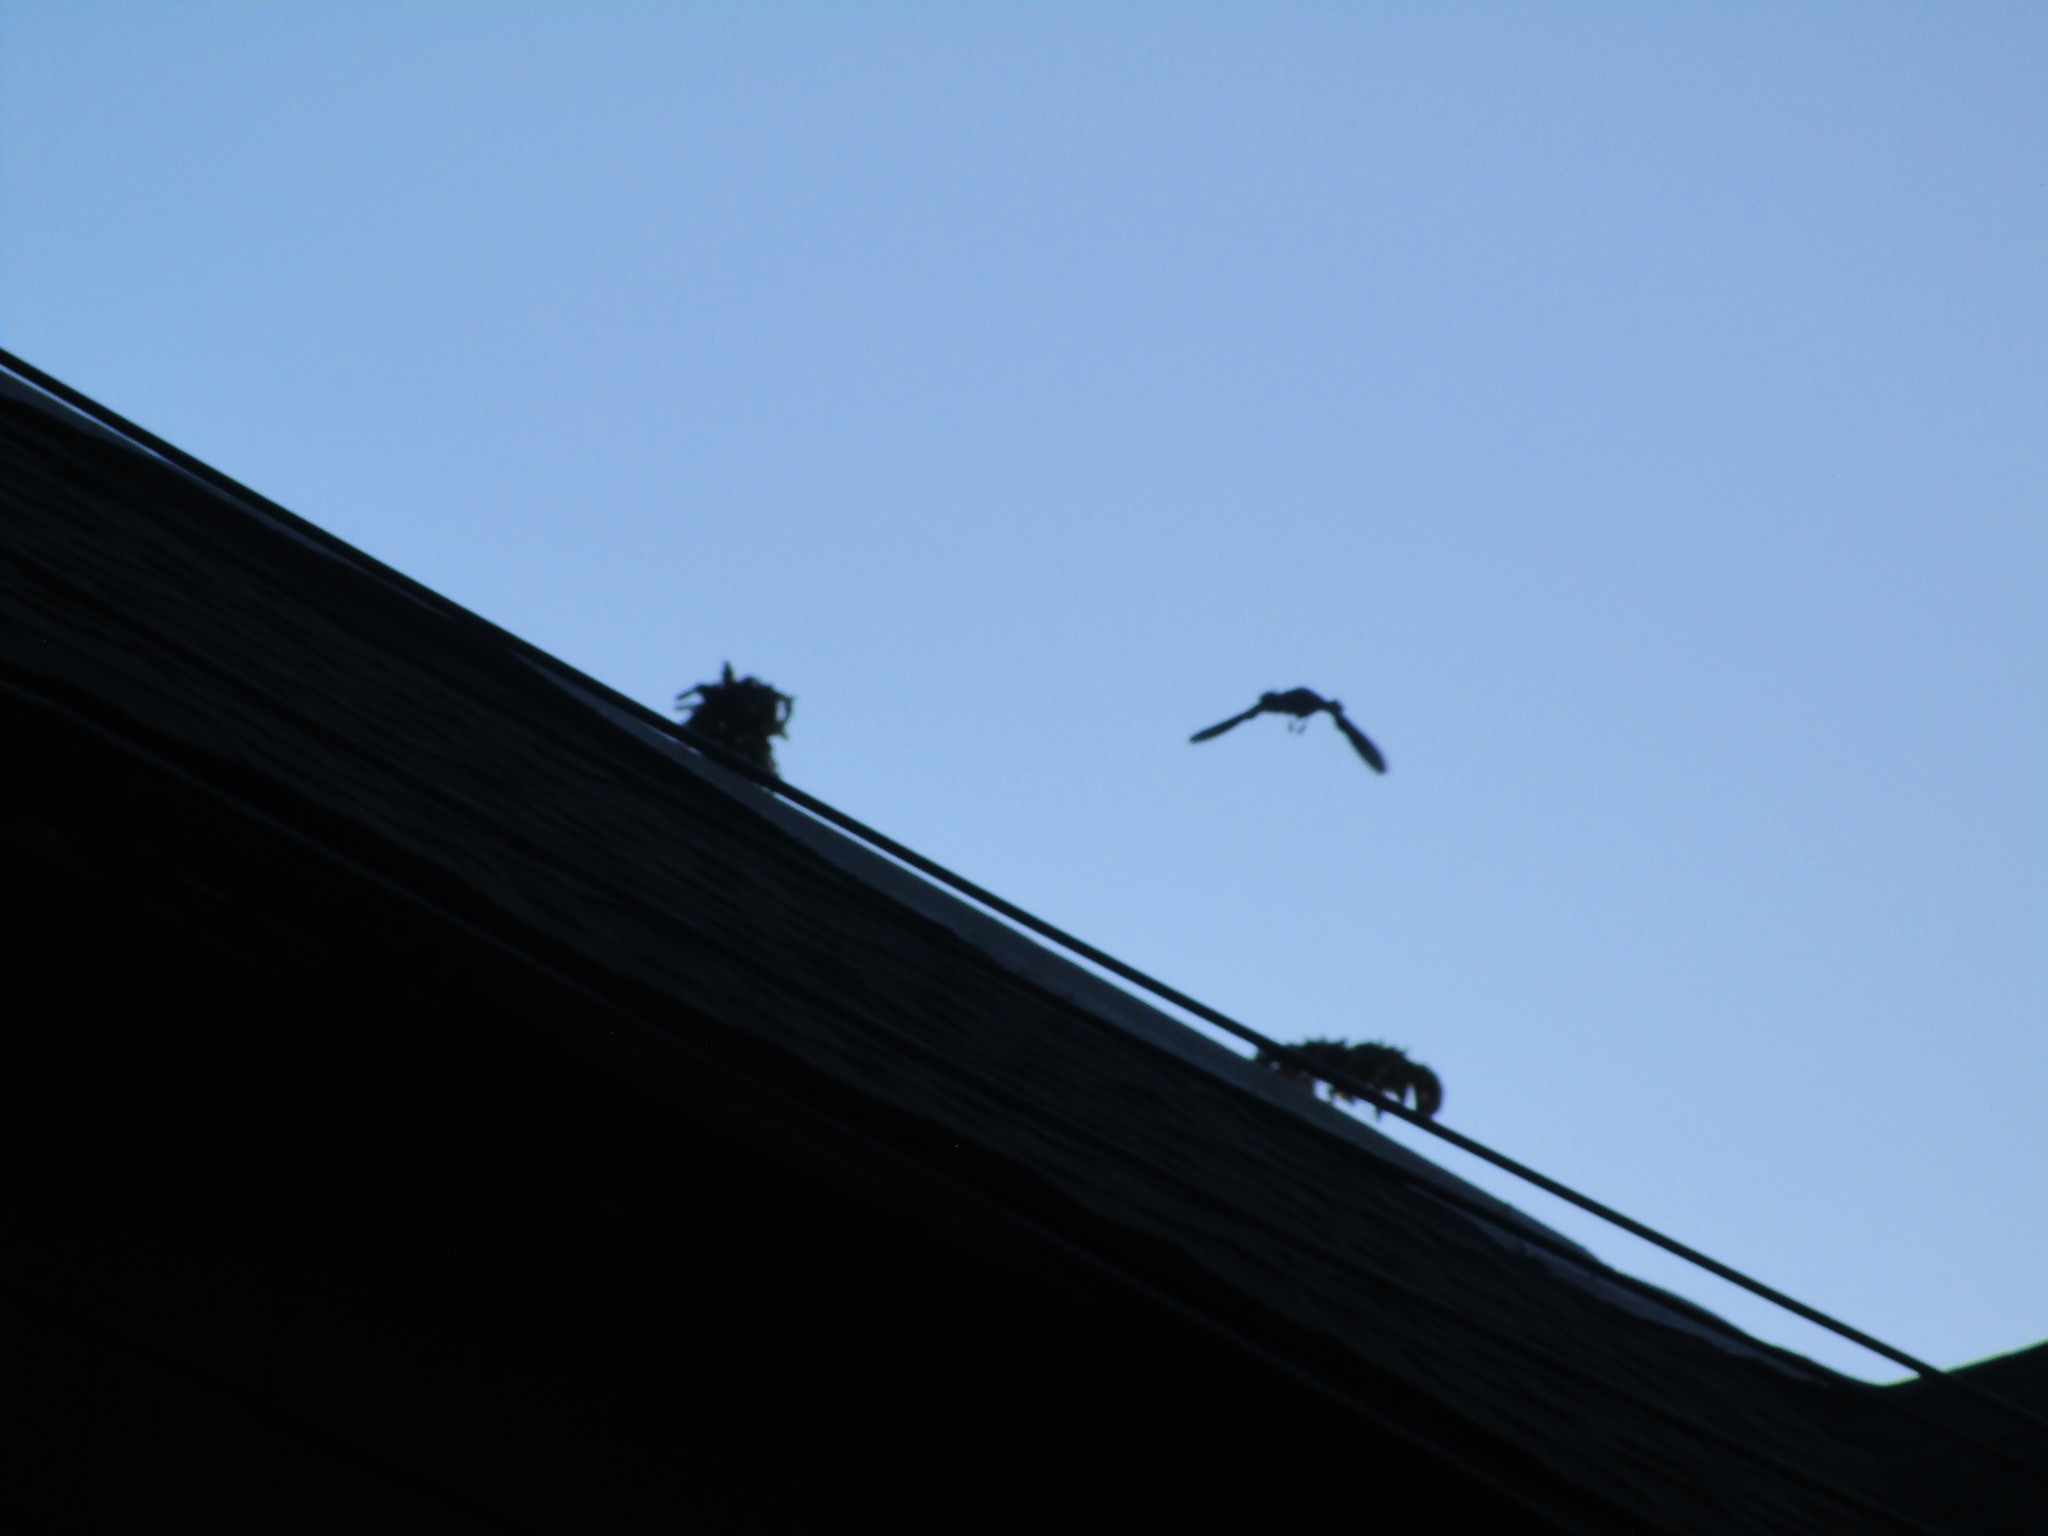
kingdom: Animalia
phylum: Chordata
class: Aves
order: Passeriformes
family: Sturnidae
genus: Sturnus
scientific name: Sturnus vulgaris
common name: Common starling
